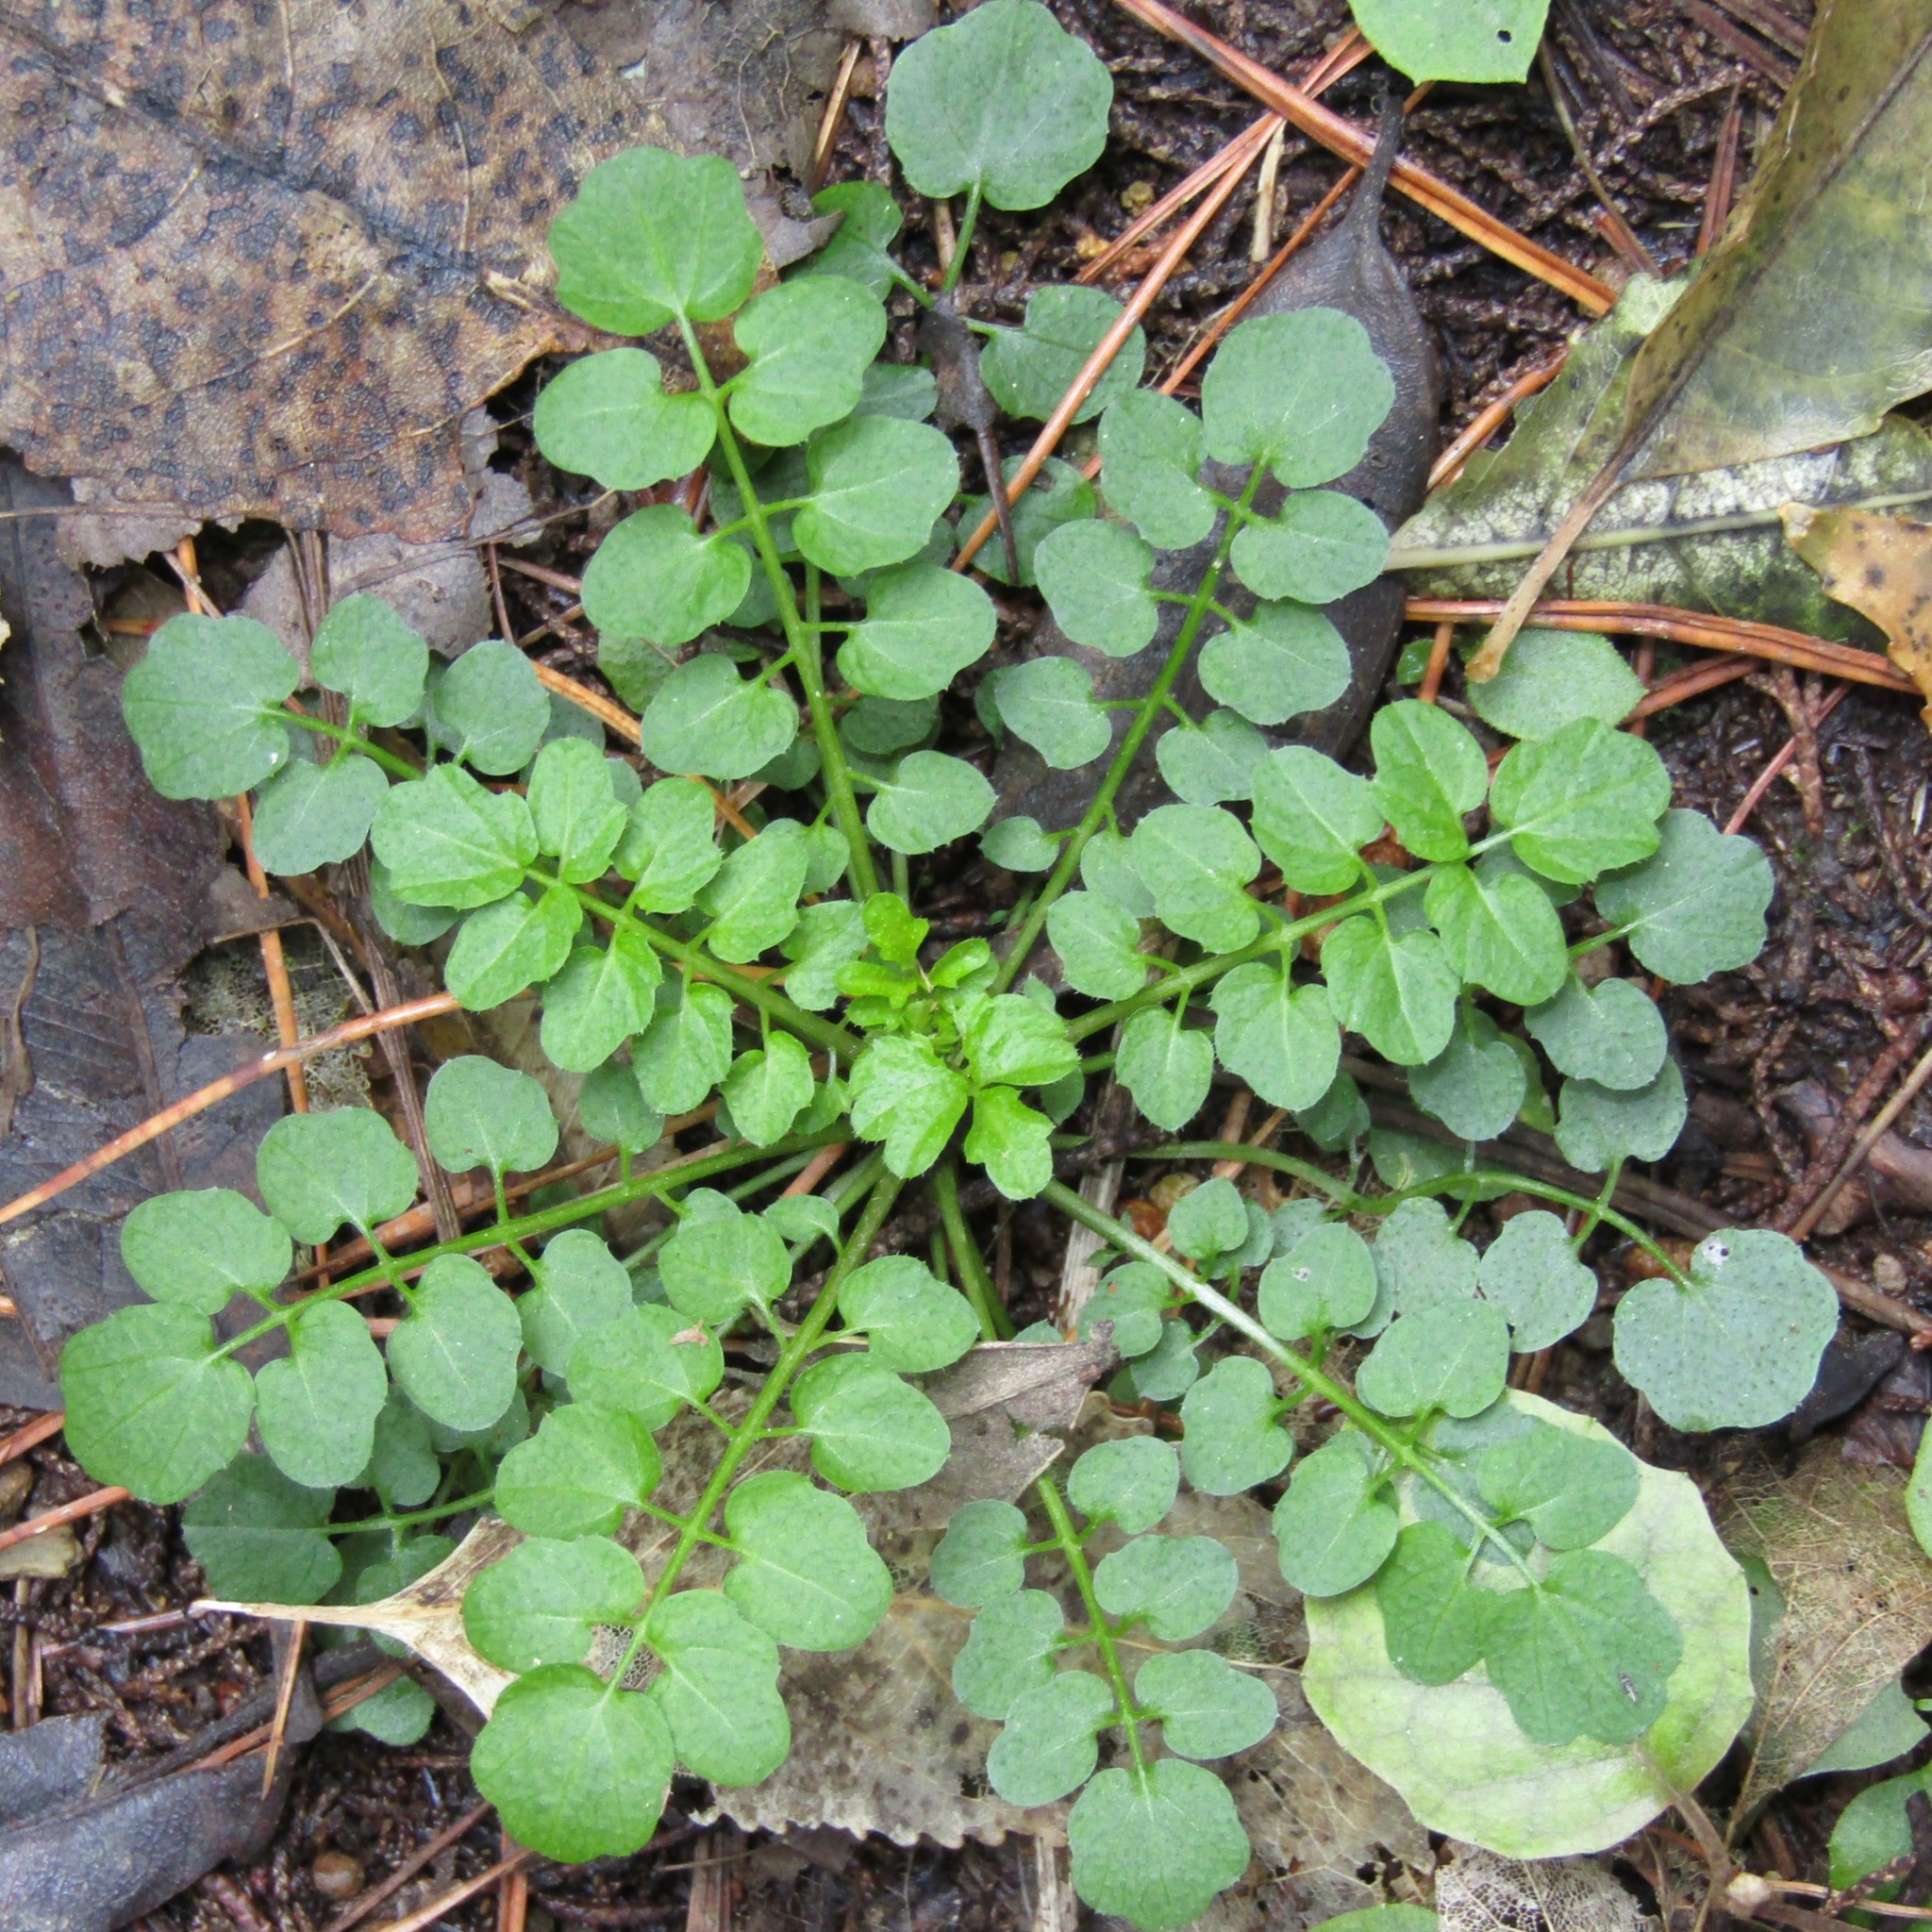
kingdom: Plantae
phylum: Tracheophyta
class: Magnoliopsida
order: Brassicales
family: Brassicaceae
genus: Cardamine
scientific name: Cardamine hirsuta
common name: Hairy bittercress
